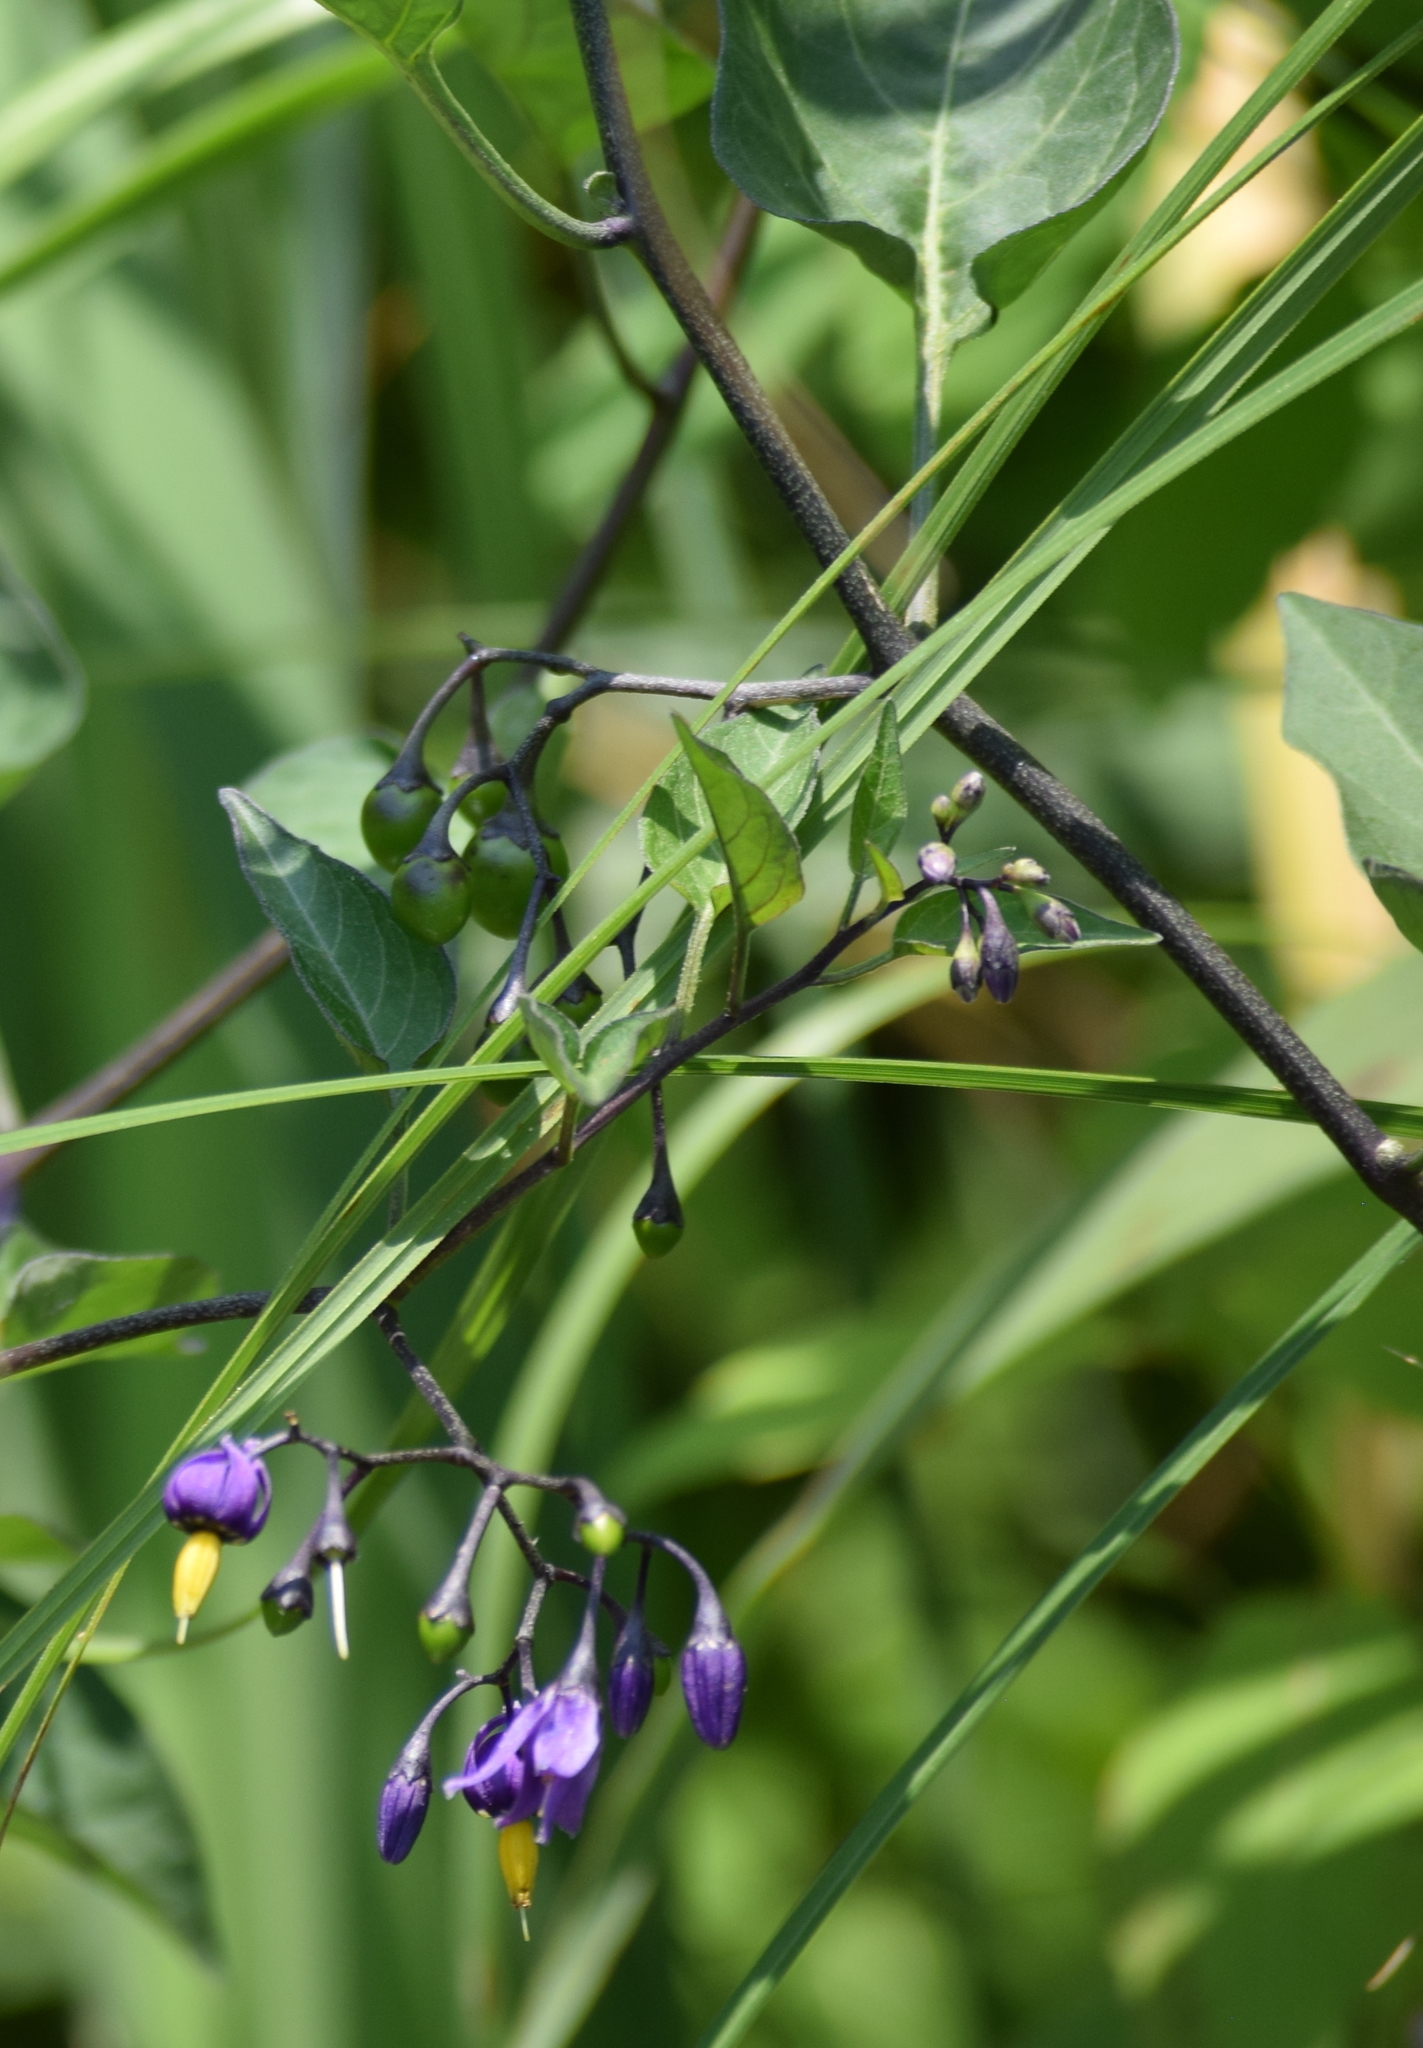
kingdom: Plantae
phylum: Tracheophyta
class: Magnoliopsida
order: Solanales
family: Solanaceae
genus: Solanum
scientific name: Solanum dulcamara
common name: Climbing nightshade
